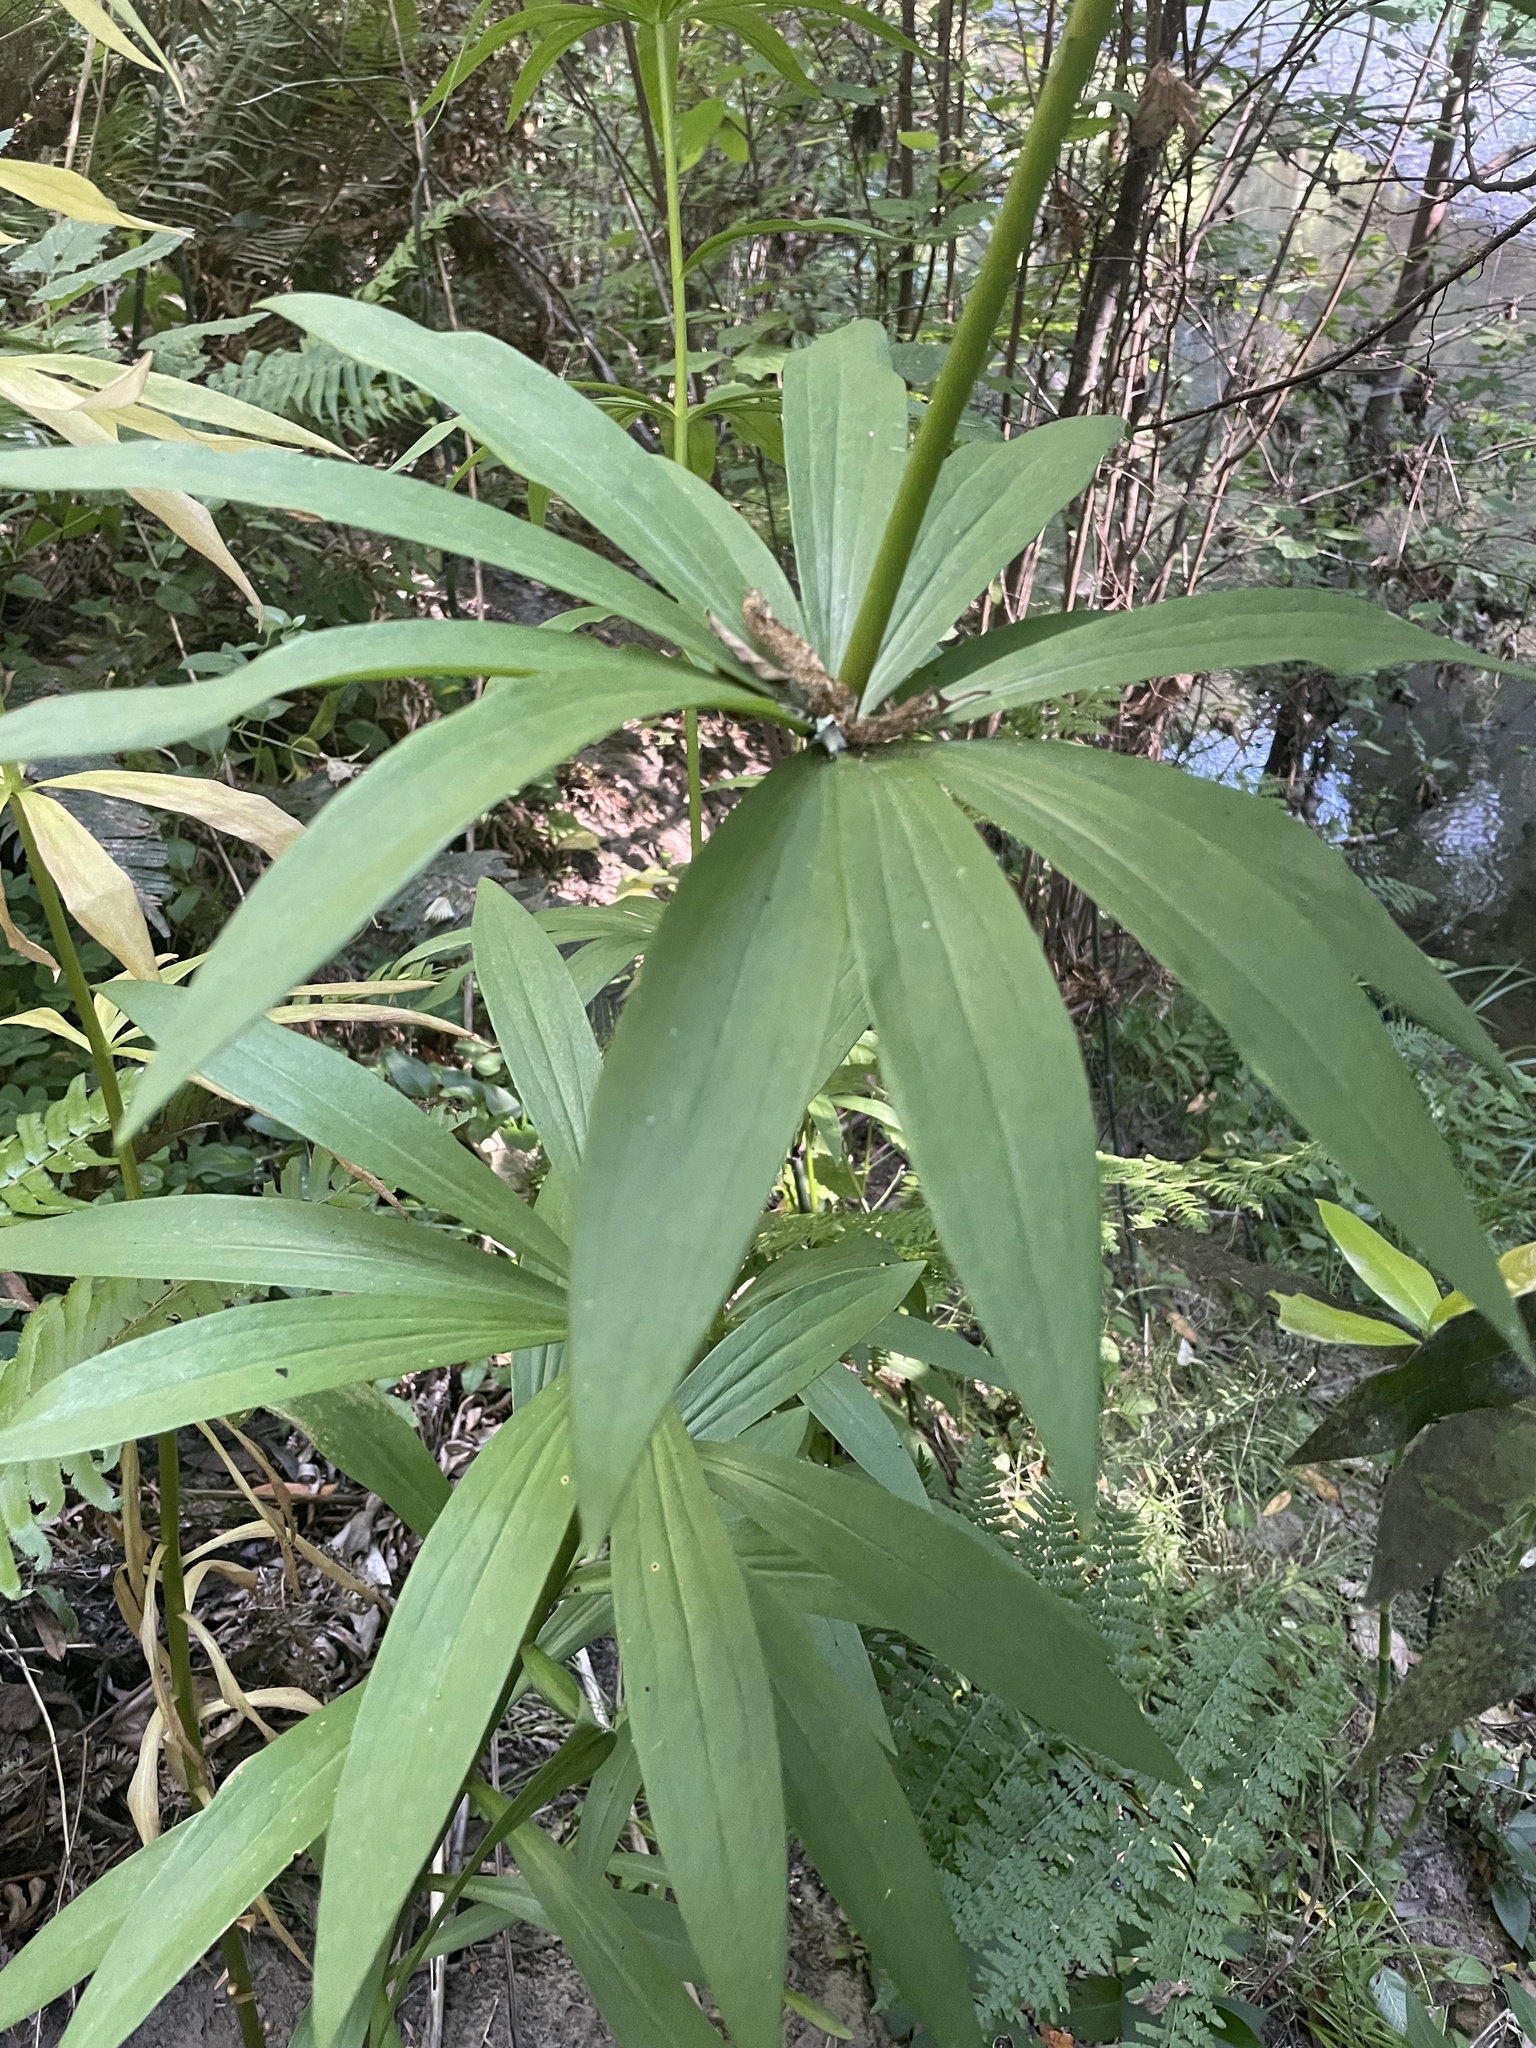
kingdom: Plantae
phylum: Tracheophyta
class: Liliopsida
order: Liliales
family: Liliaceae
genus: Lilium
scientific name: Lilium pardalinum
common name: Panther lily
